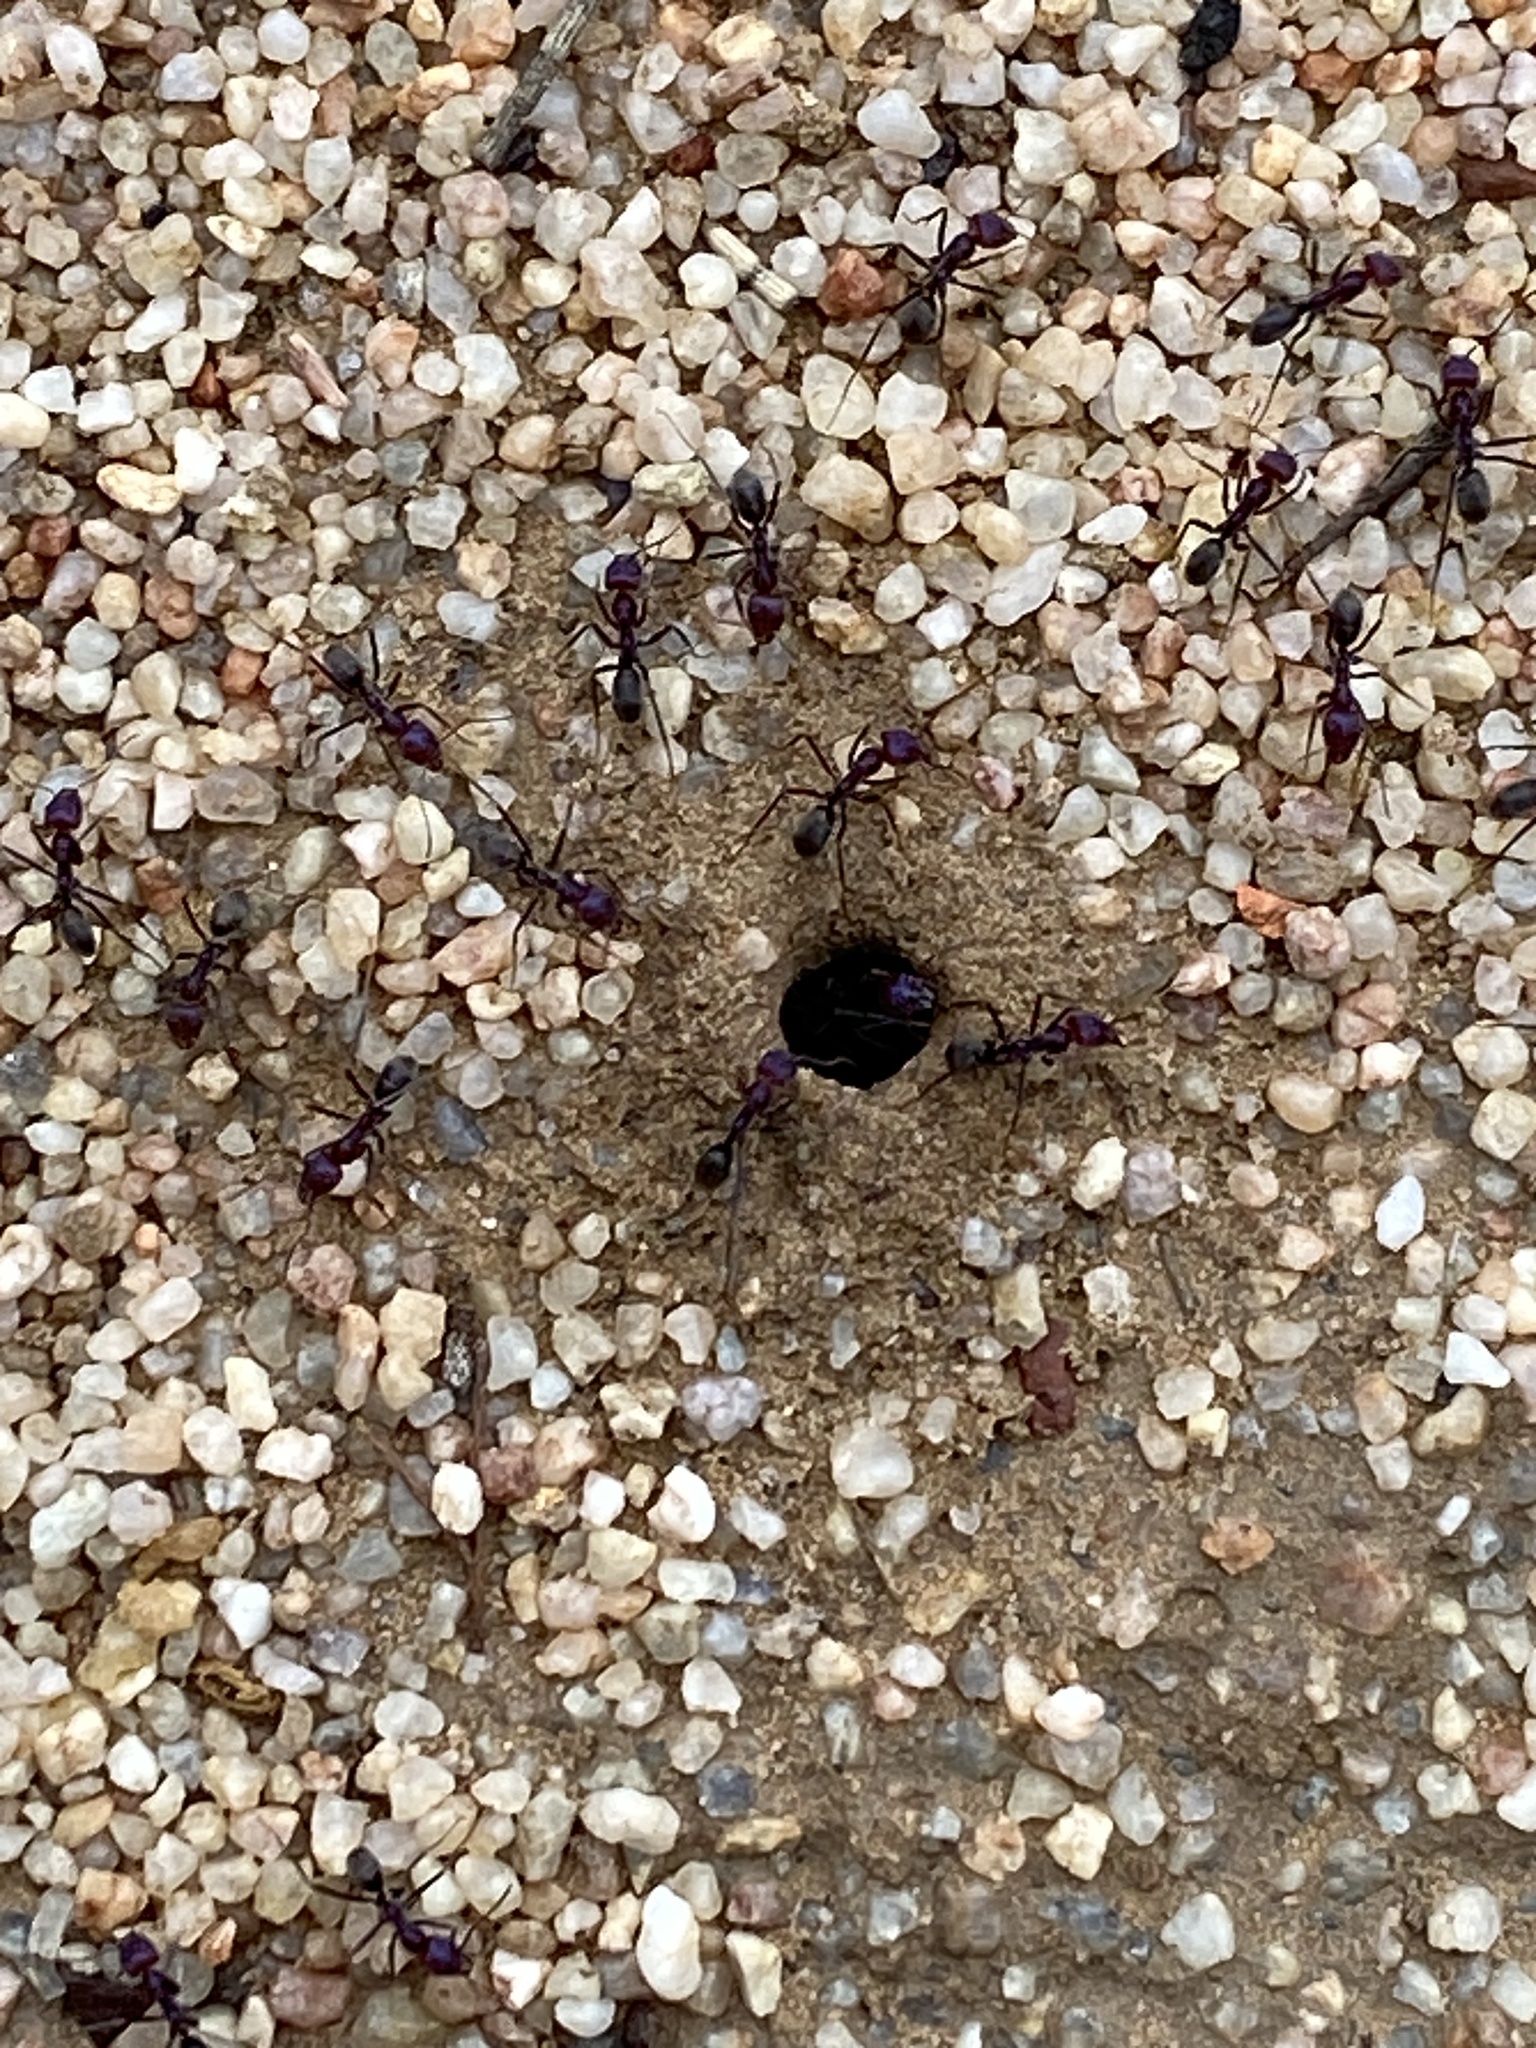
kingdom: Animalia
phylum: Arthropoda
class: Insecta
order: Hymenoptera
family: Formicidae
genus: Iridomyrmex
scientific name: Iridomyrmex purpureus
